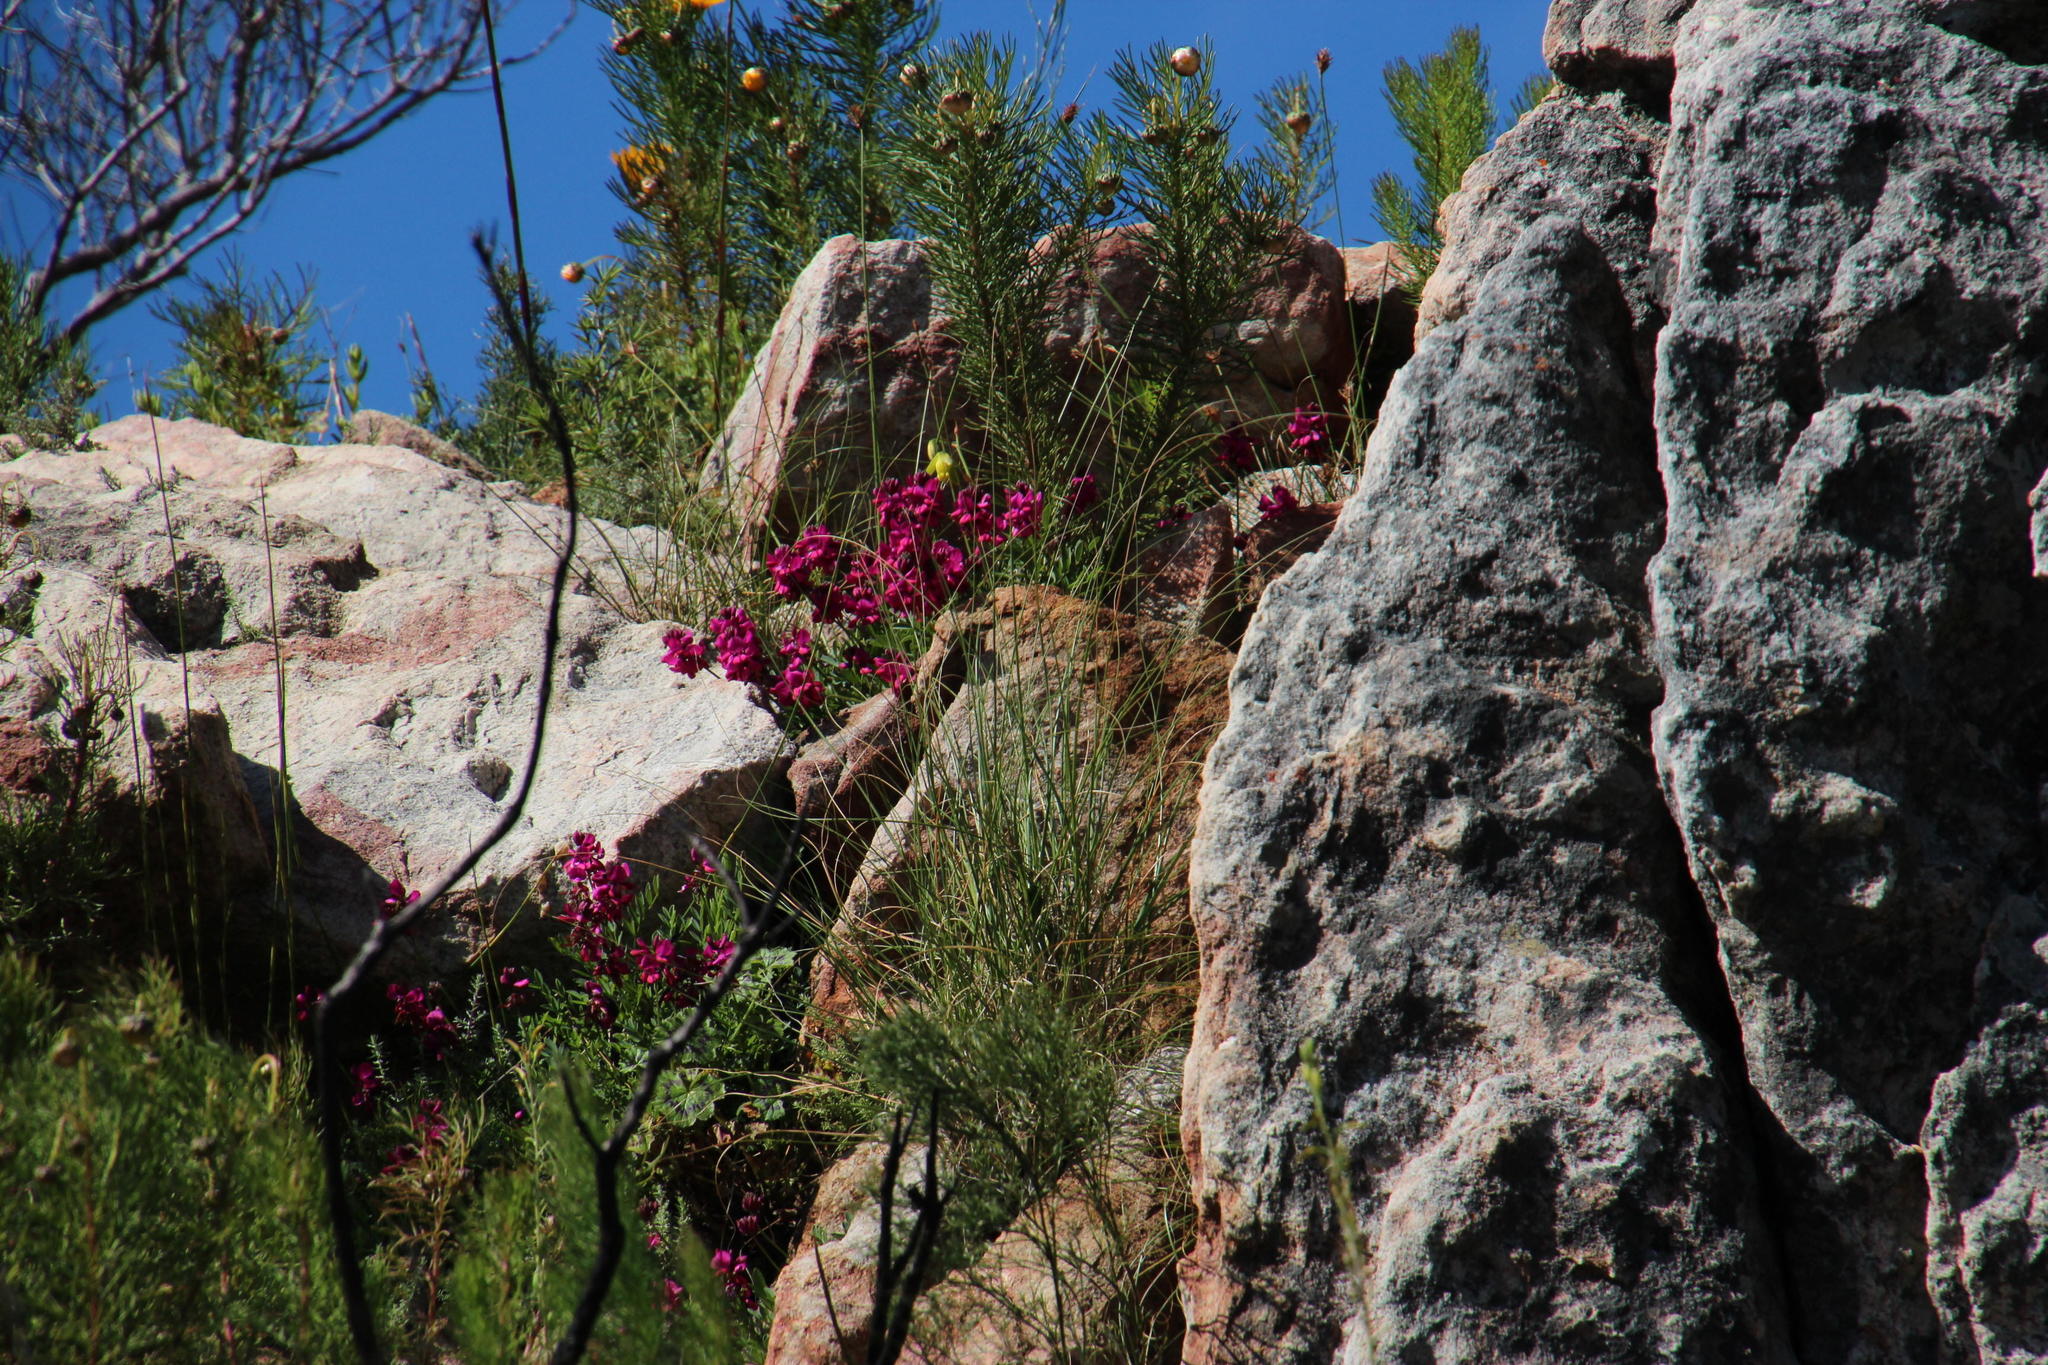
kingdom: Plantae
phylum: Tracheophyta
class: Magnoliopsida
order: Fabales
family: Fabaceae
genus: Indigofera
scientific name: Indigofera capillaris
